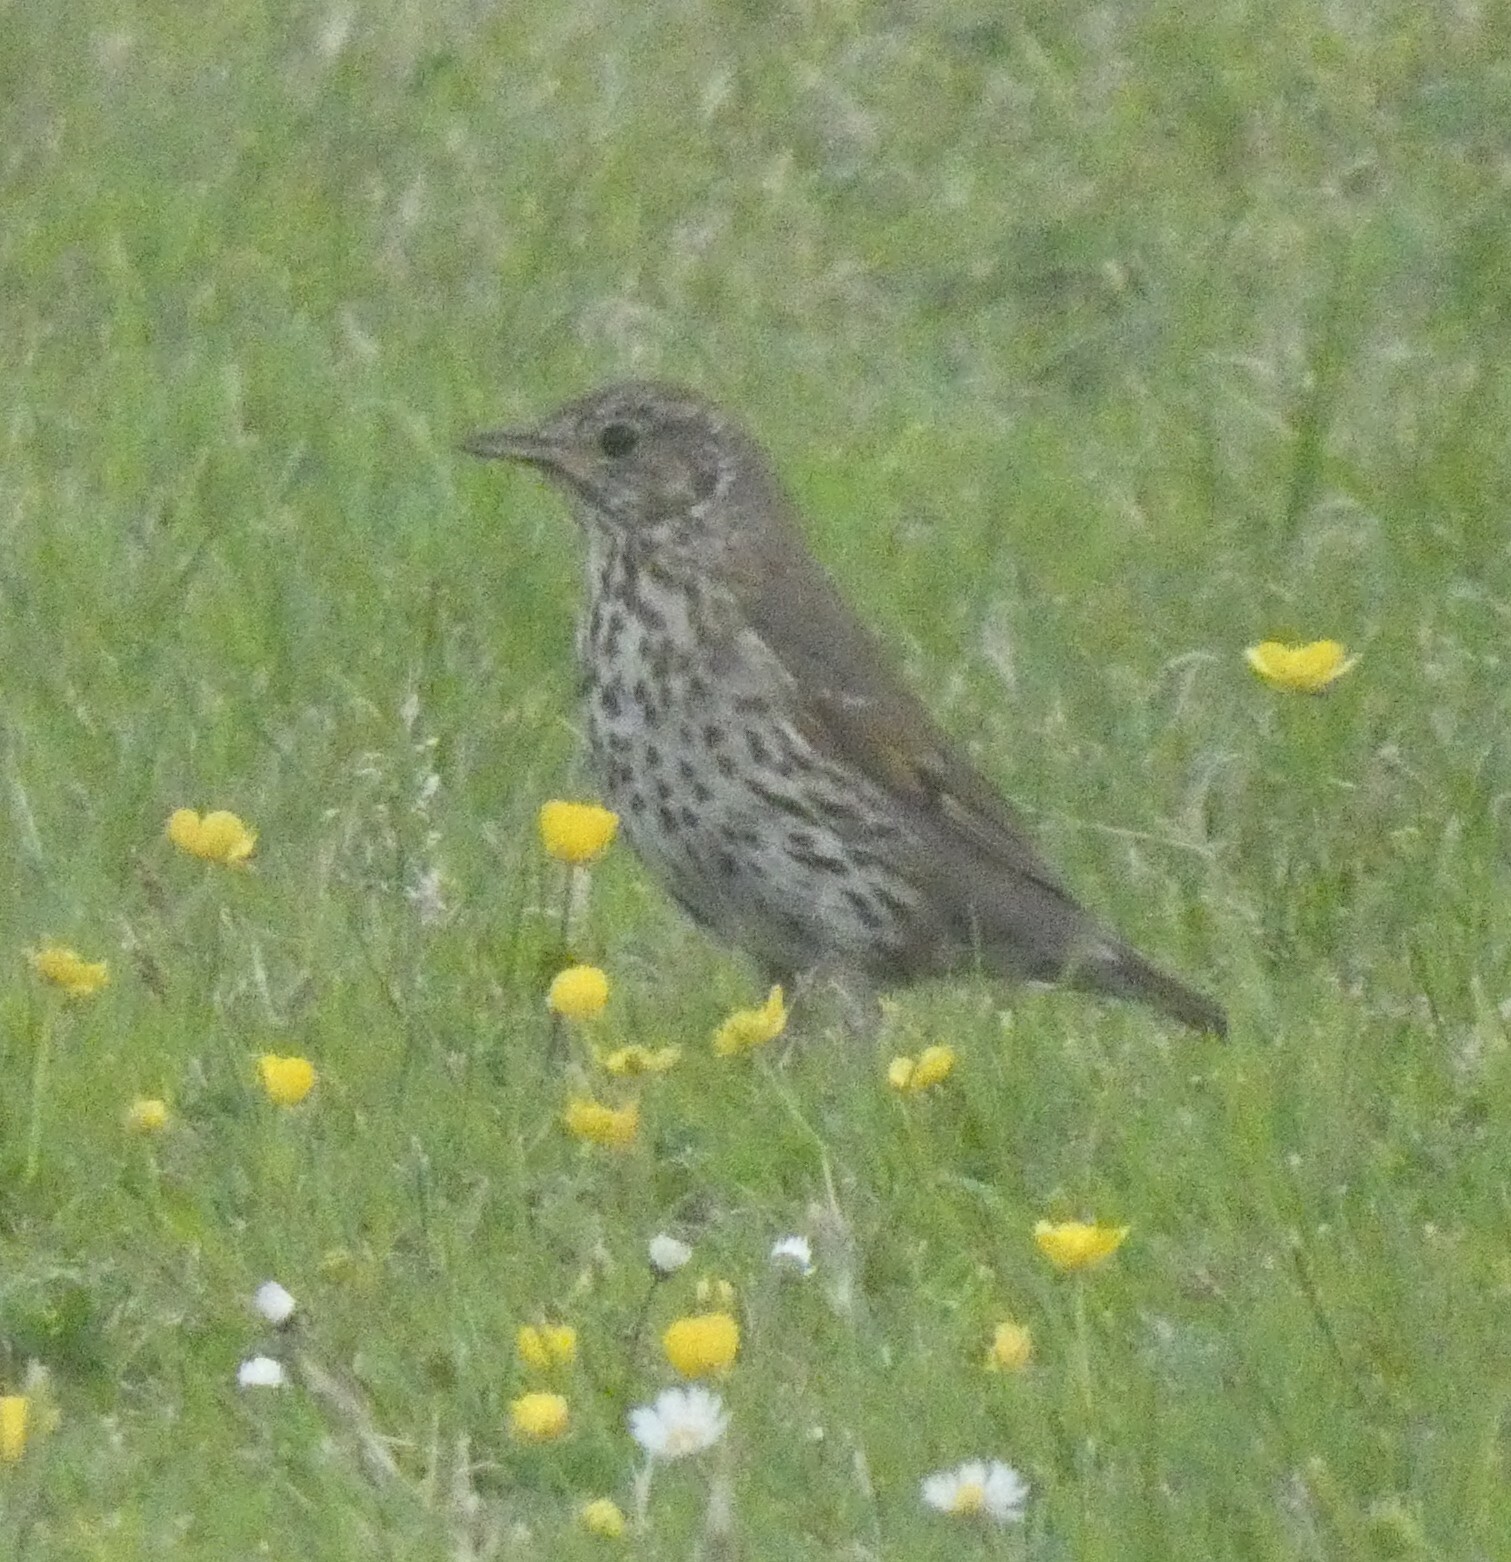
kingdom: Animalia
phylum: Chordata
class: Aves
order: Passeriformes
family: Turdidae
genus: Turdus
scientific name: Turdus philomelos
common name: Song thrush
